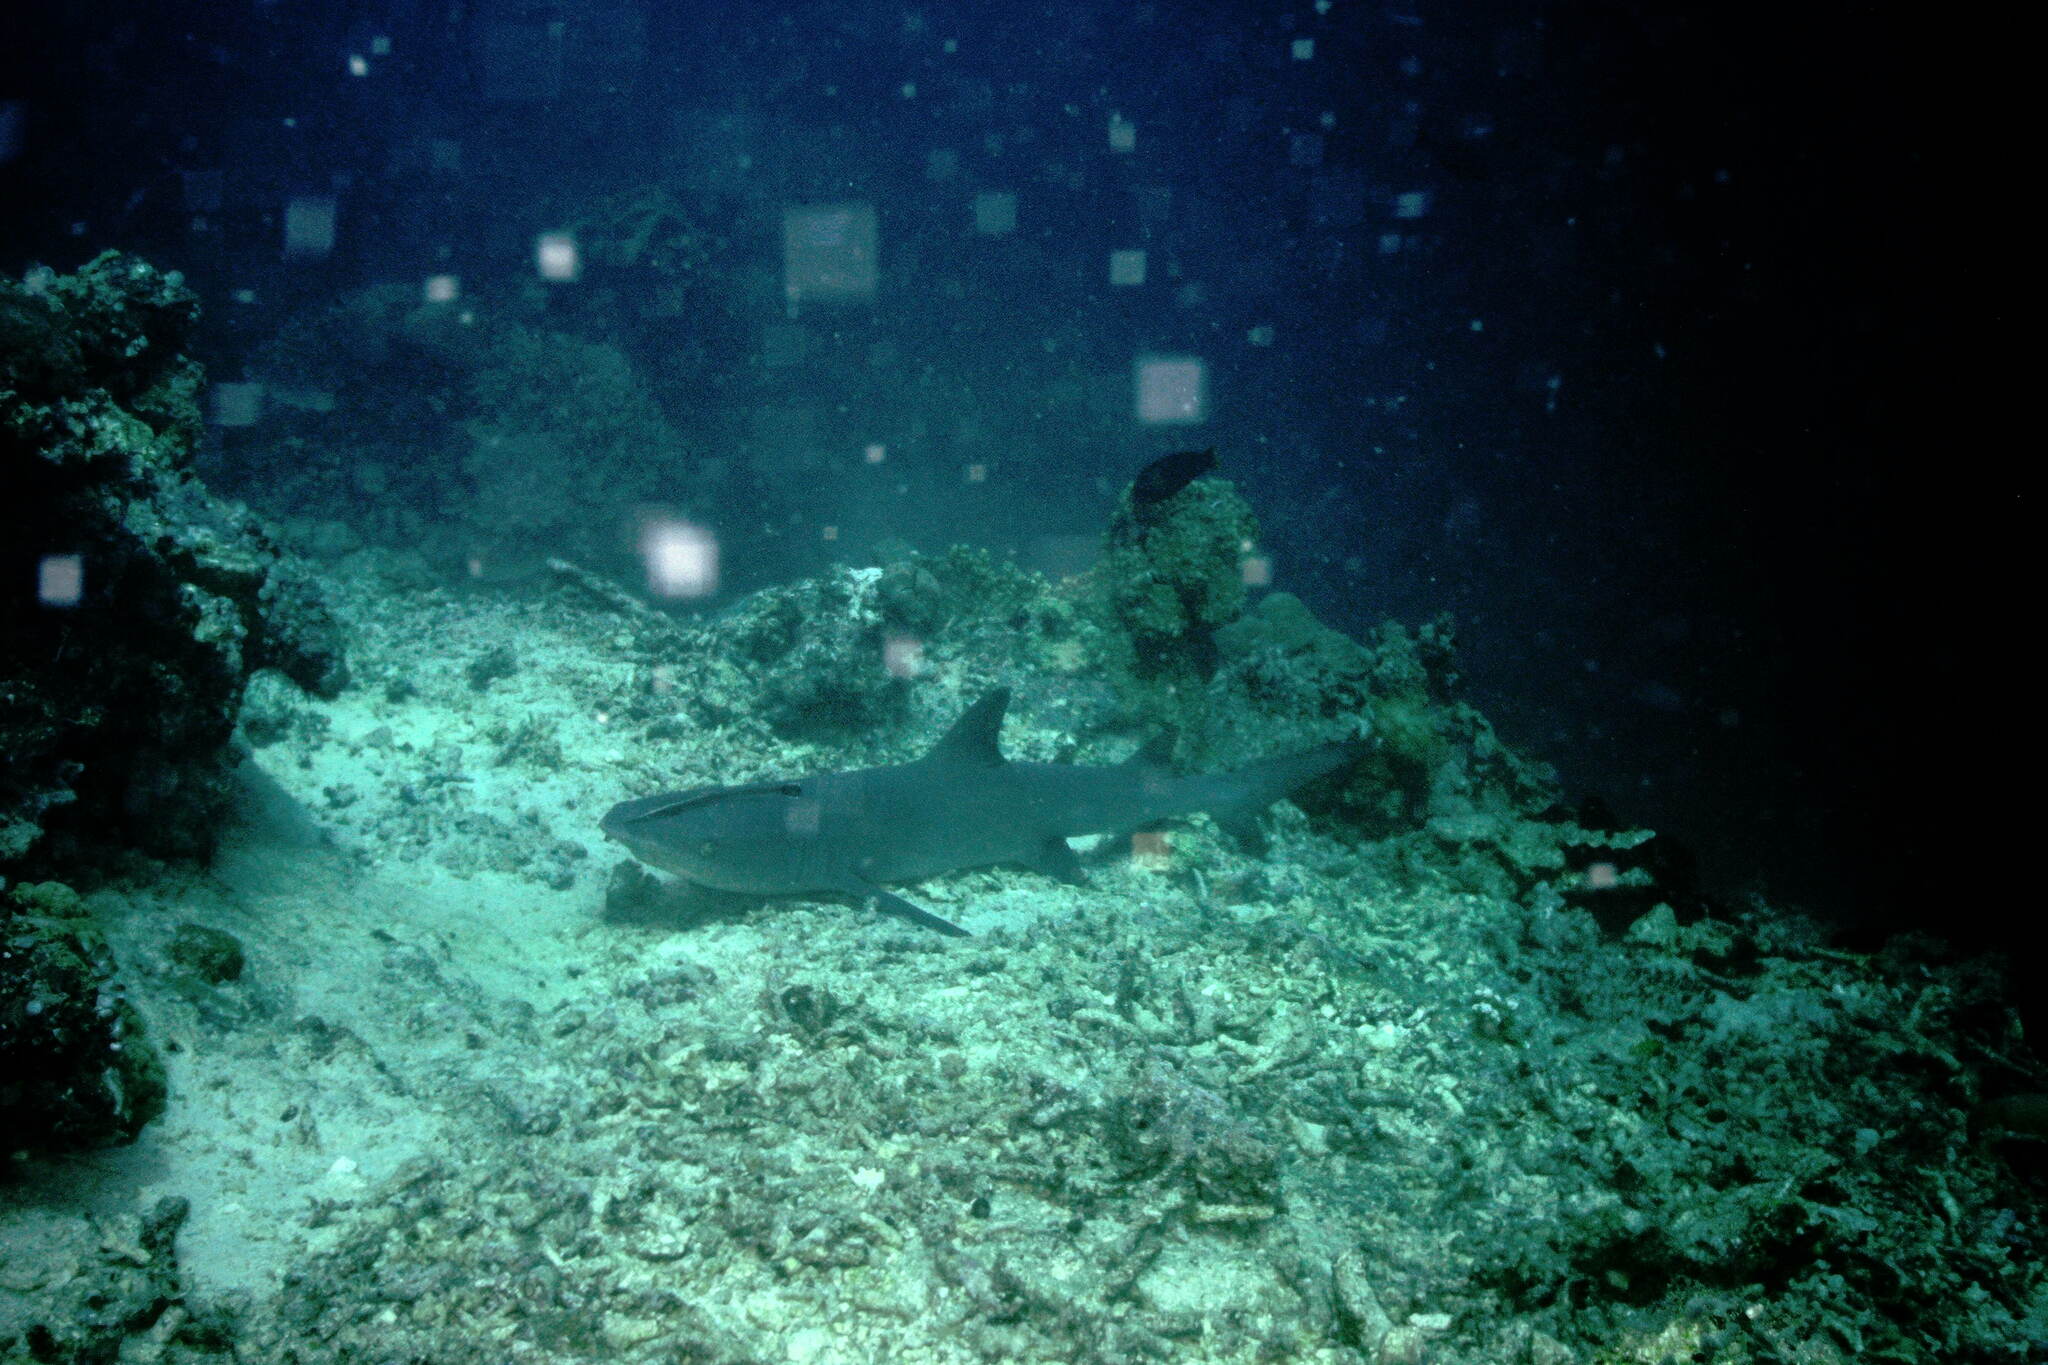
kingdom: Animalia
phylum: Chordata
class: Elasmobranchii
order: Carcharhiniformes
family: Carcharhinidae
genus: Triaenodon
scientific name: Triaenodon obesus
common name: Whitetip reef shark
